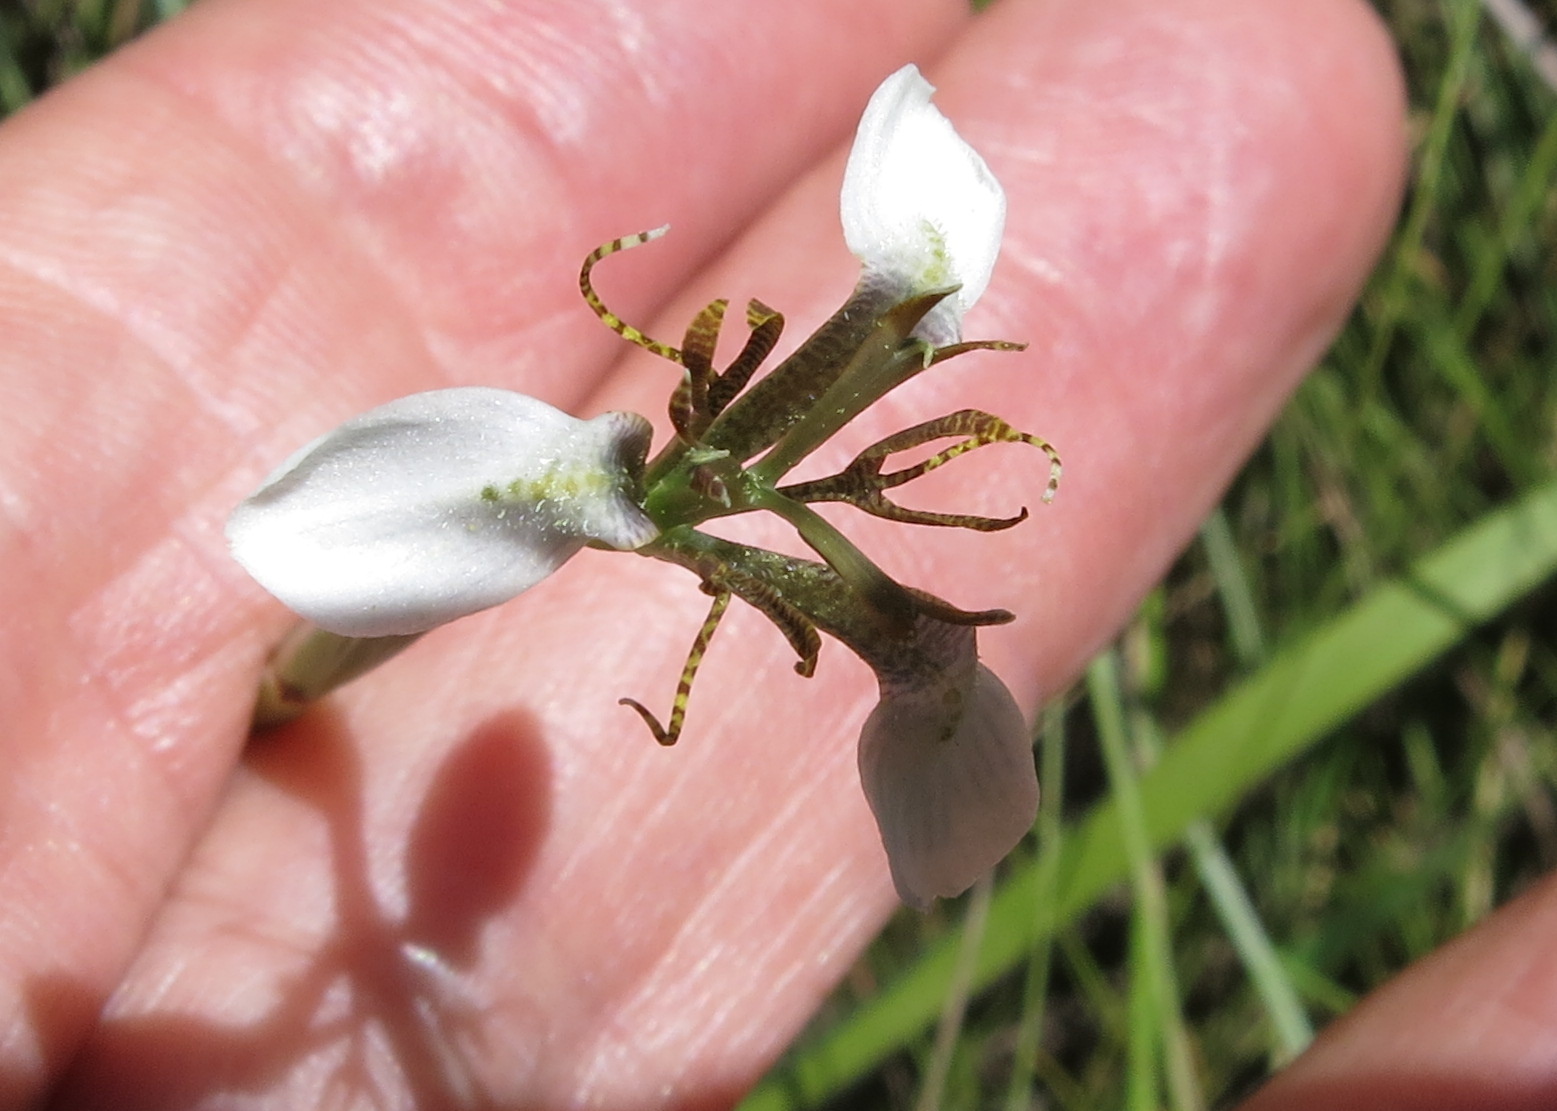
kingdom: Plantae
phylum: Tracheophyta
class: Liliopsida
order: Asparagales
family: Iridaceae
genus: Moraea
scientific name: Moraea brevistyla
